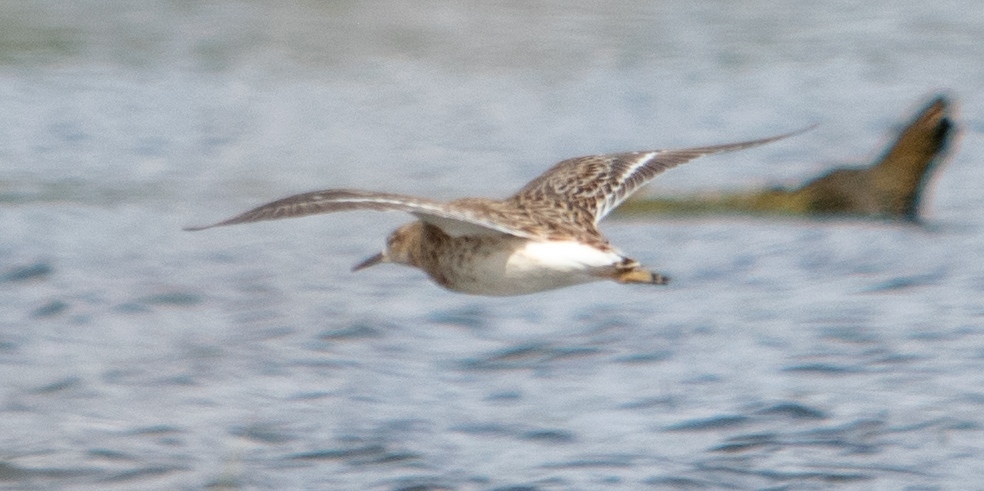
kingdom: Animalia
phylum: Chordata
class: Aves
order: Charadriiformes
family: Scolopacidae
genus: Calidris
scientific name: Calidris pugnax
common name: Ruff
